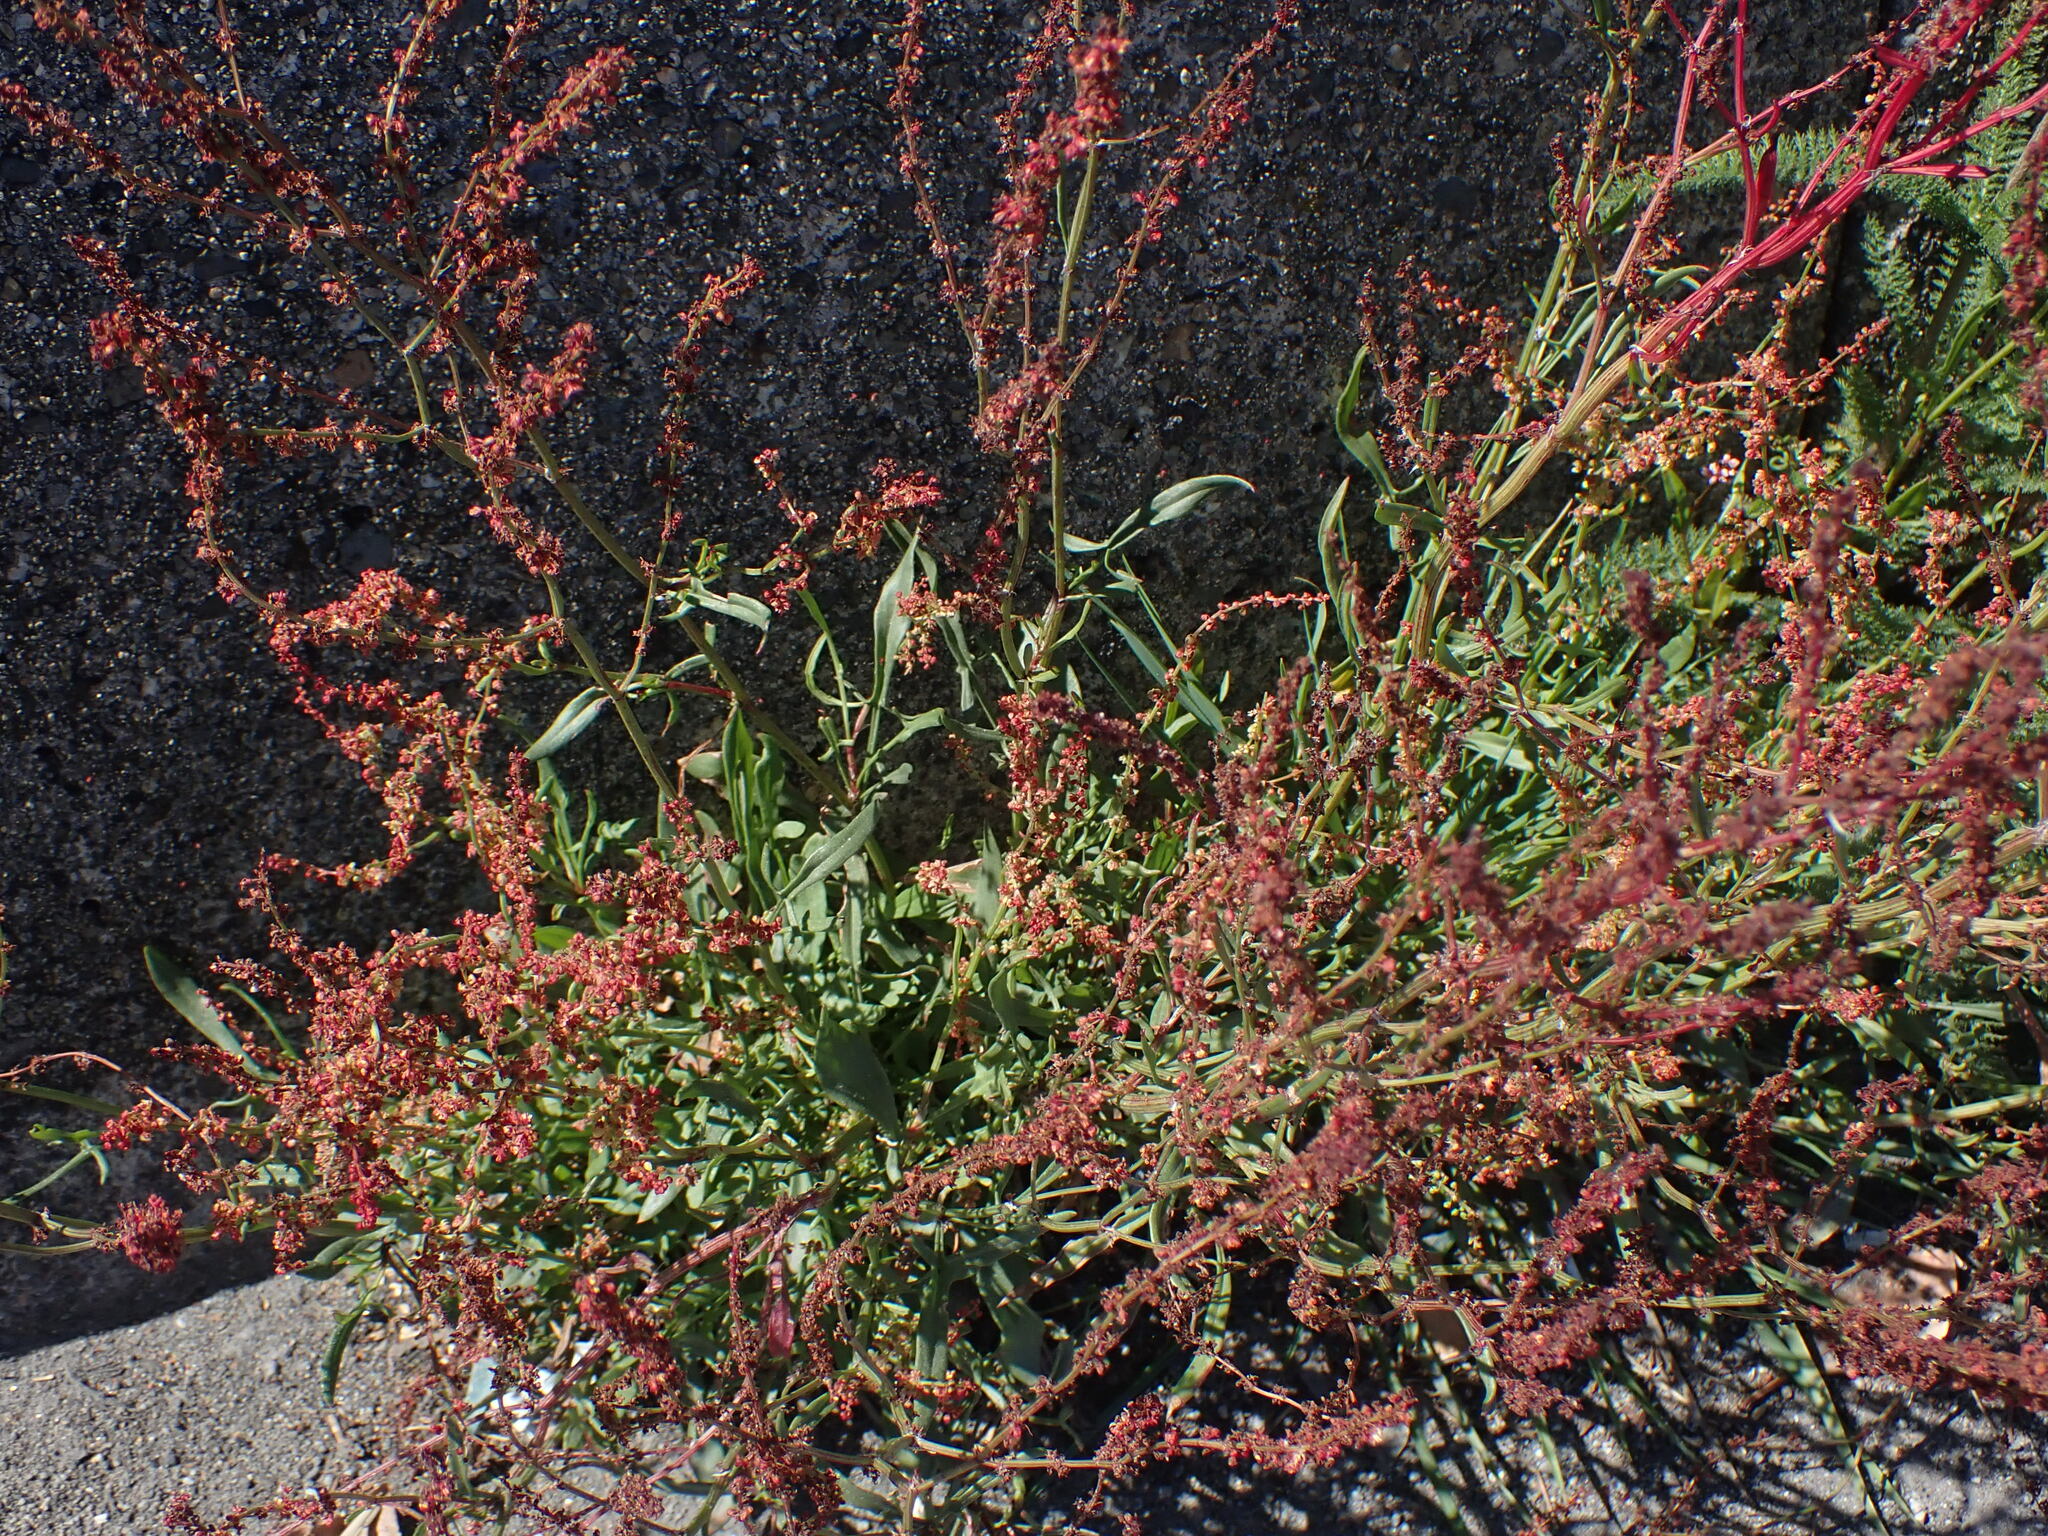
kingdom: Plantae
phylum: Tracheophyta
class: Magnoliopsida
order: Caryophyllales
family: Polygonaceae
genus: Rumex
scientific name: Rumex acetosella
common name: Common sheep sorrel
